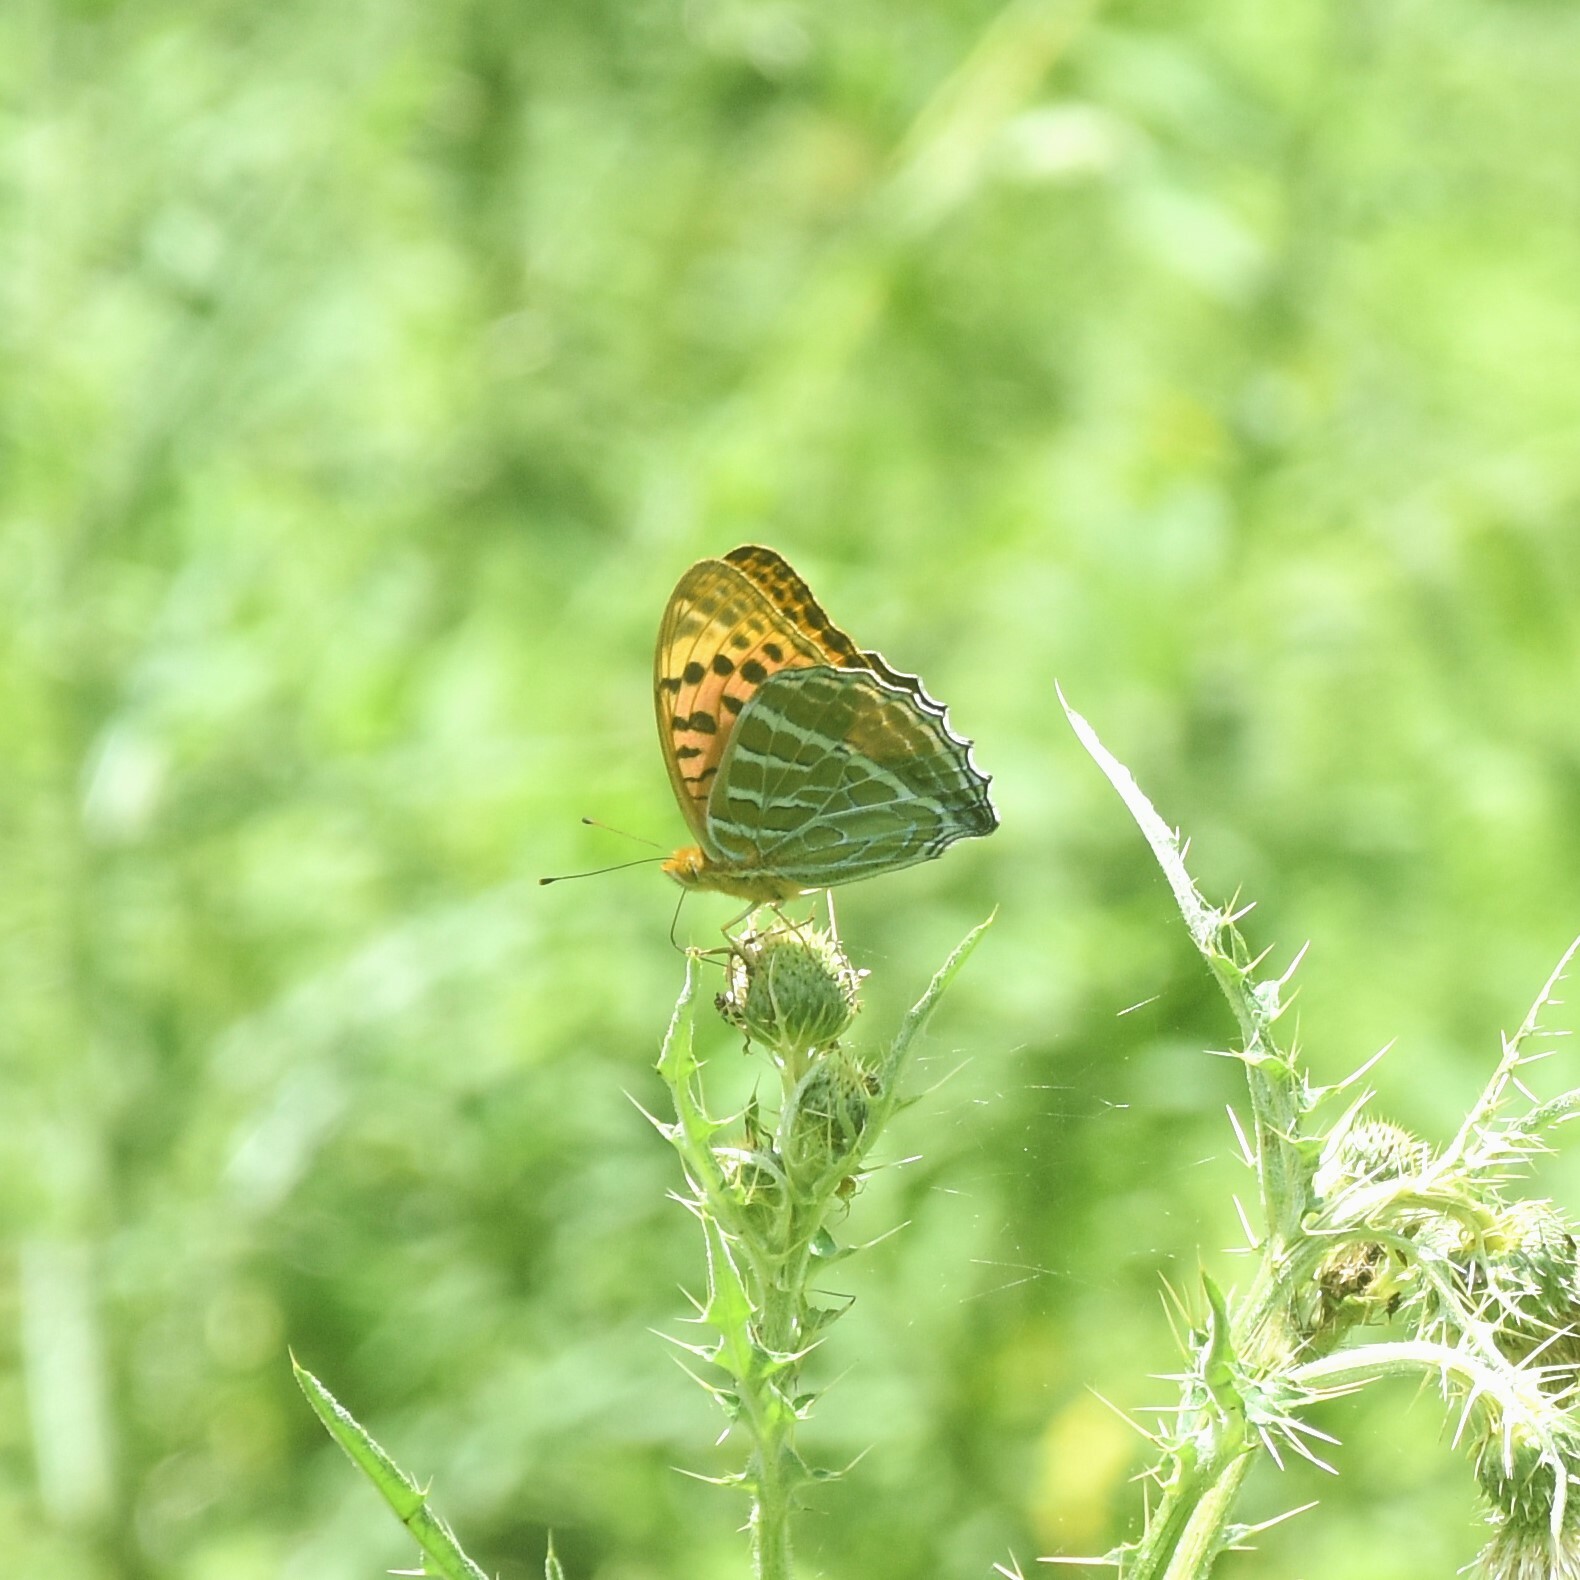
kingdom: Animalia
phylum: Arthropoda
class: Insecta
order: Lepidoptera
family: Nymphalidae
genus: Childrena
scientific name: Childrena childreni
